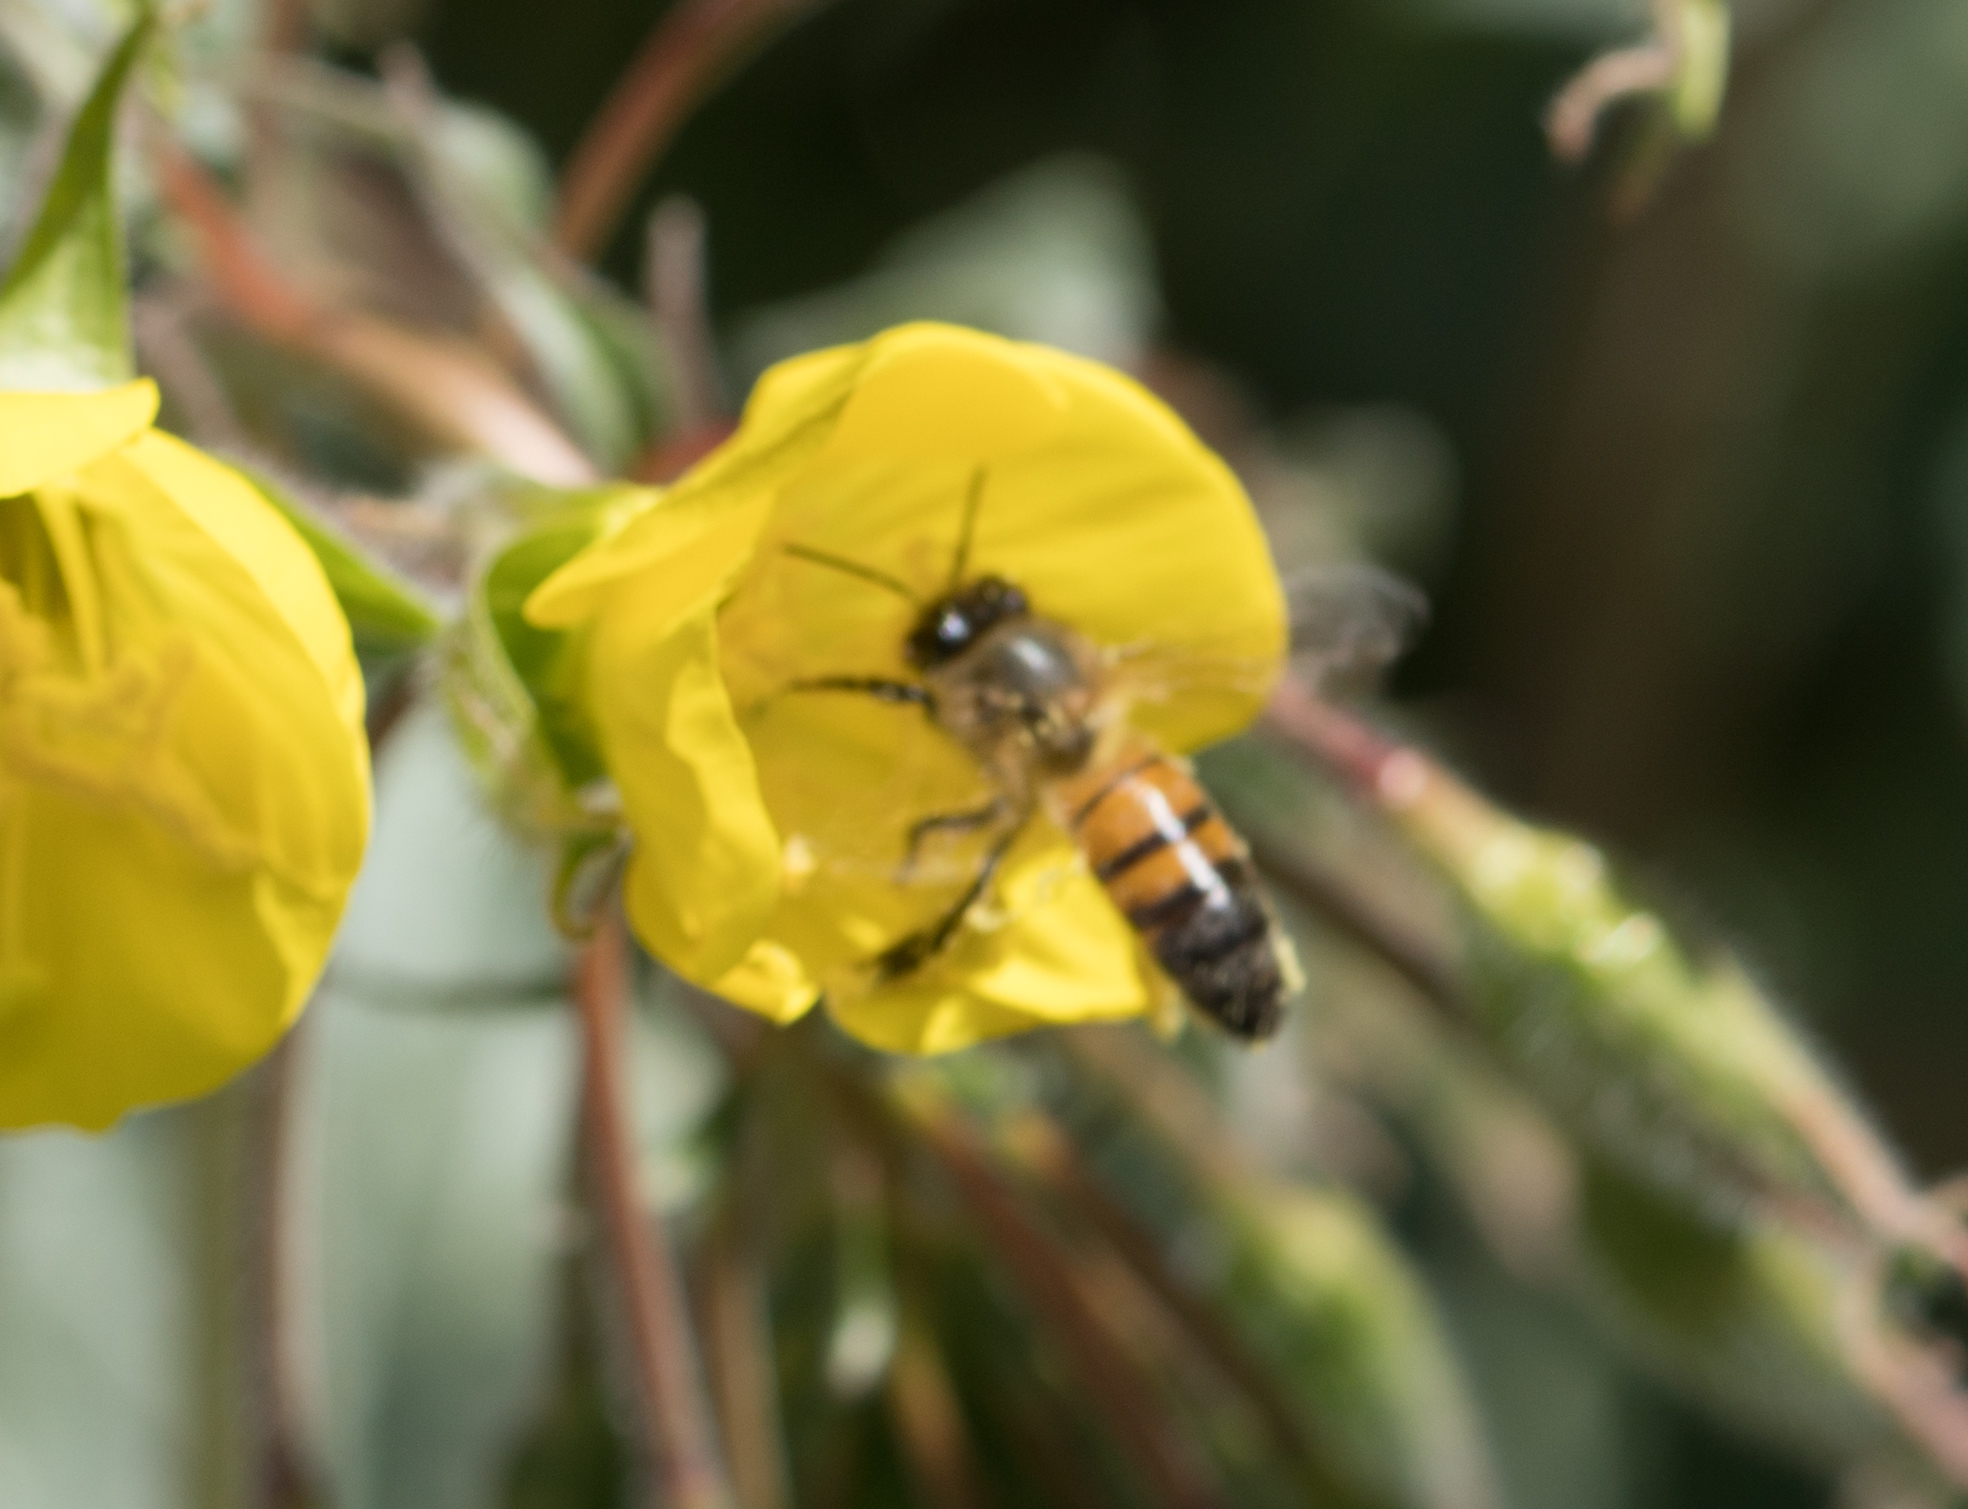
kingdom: Animalia
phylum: Arthropoda
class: Insecta
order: Hymenoptera
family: Apidae
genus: Apis
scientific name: Apis mellifera
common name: Honey bee
